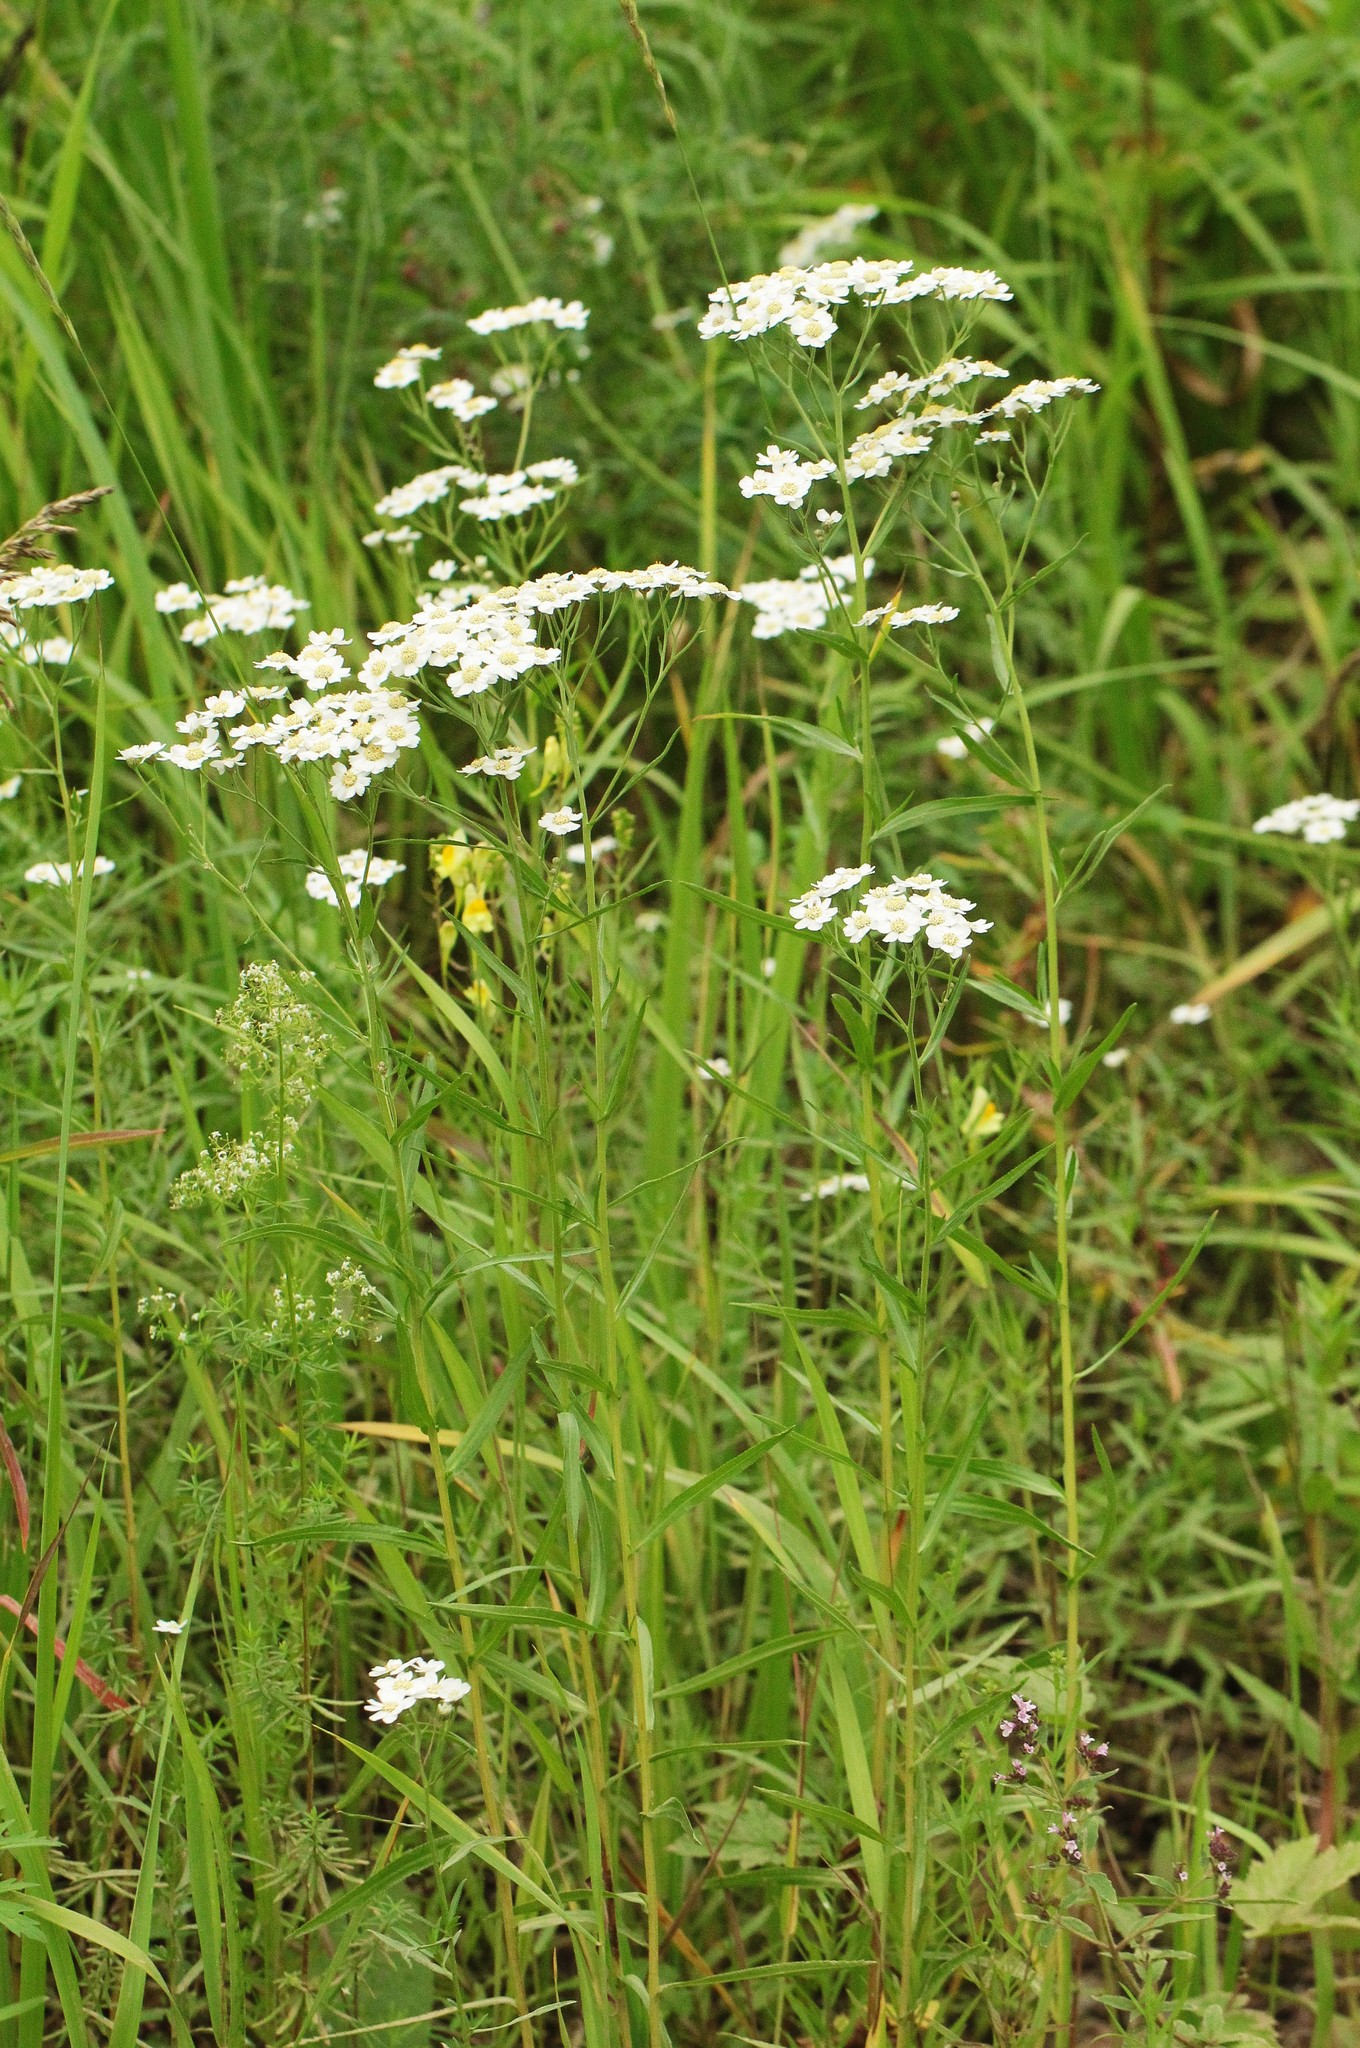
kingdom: Plantae
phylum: Tracheophyta
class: Magnoliopsida
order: Asterales
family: Asteraceae
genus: Achillea
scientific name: Achillea salicifolia
